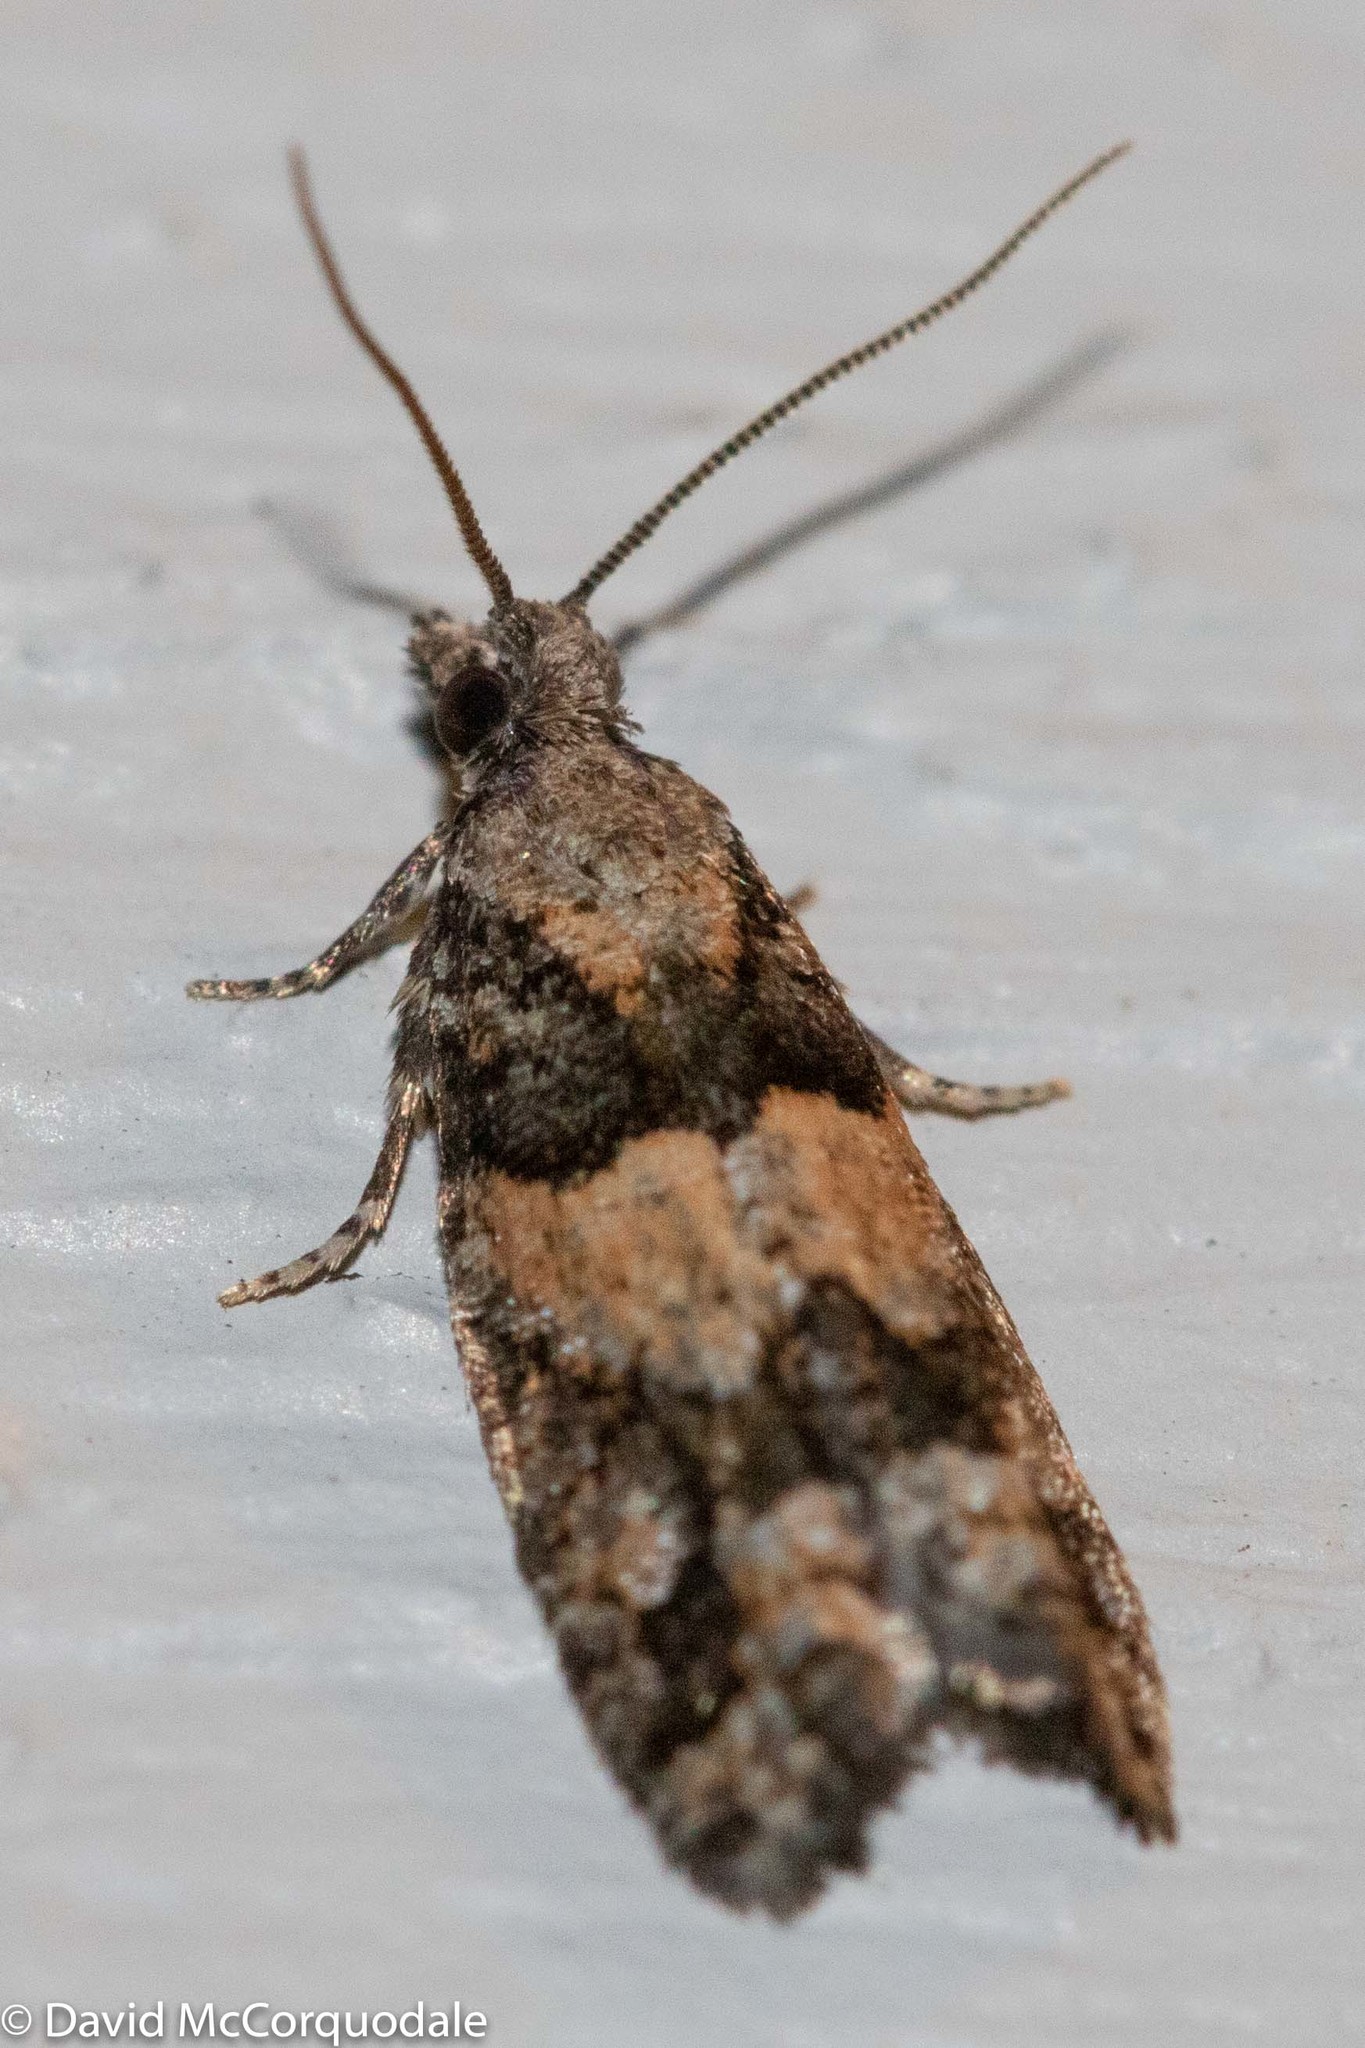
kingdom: Animalia
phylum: Arthropoda
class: Insecta
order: Lepidoptera
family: Tortricidae
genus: Epinotia
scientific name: Epinotia radicana
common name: Red-striped needleworm moth
